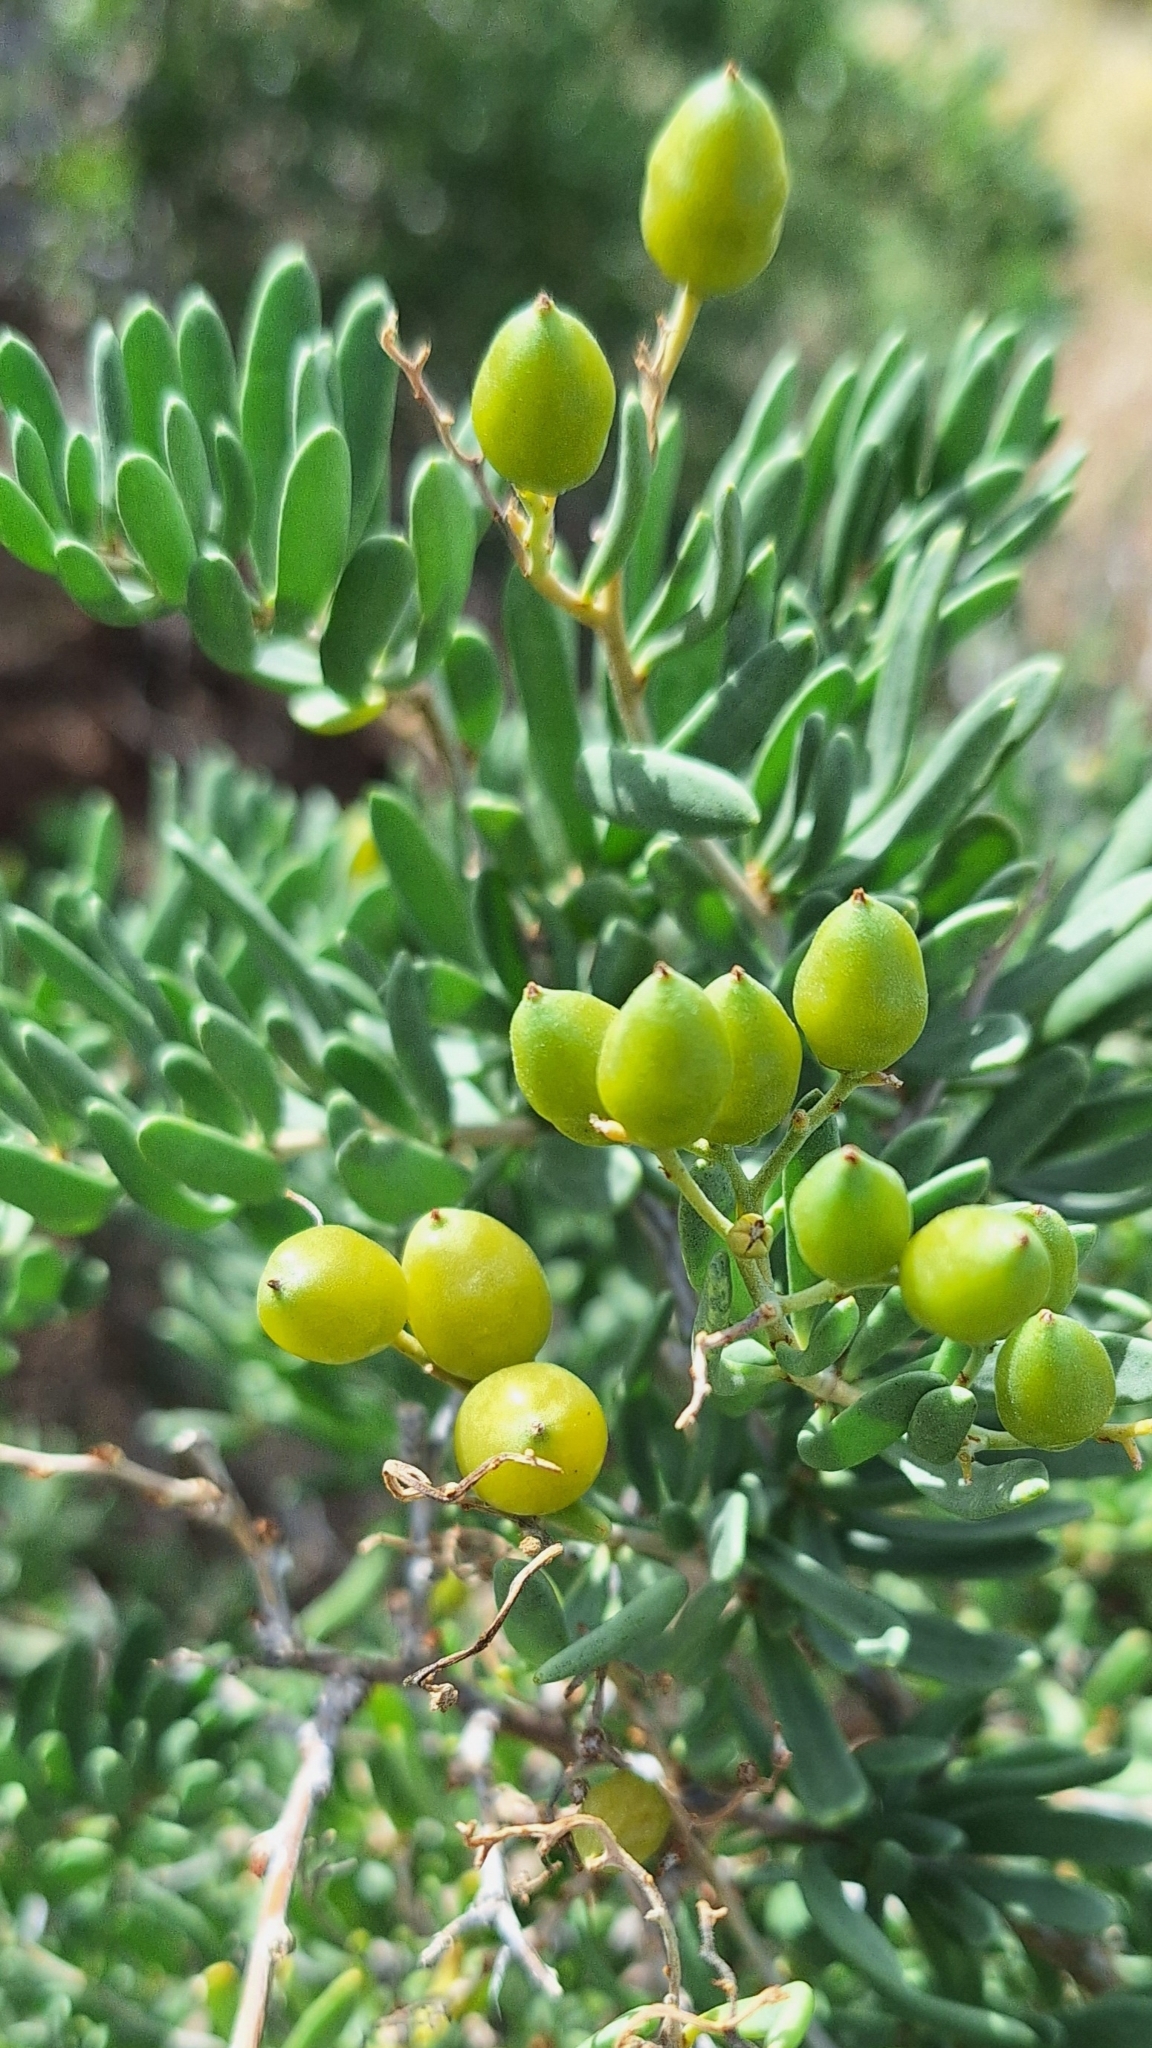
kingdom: Plantae
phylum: Tracheophyta
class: Magnoliopsida
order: Sapindales
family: Nitrariaceae
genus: Nitraria
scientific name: Nitraria billardierei
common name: Dillonbush
